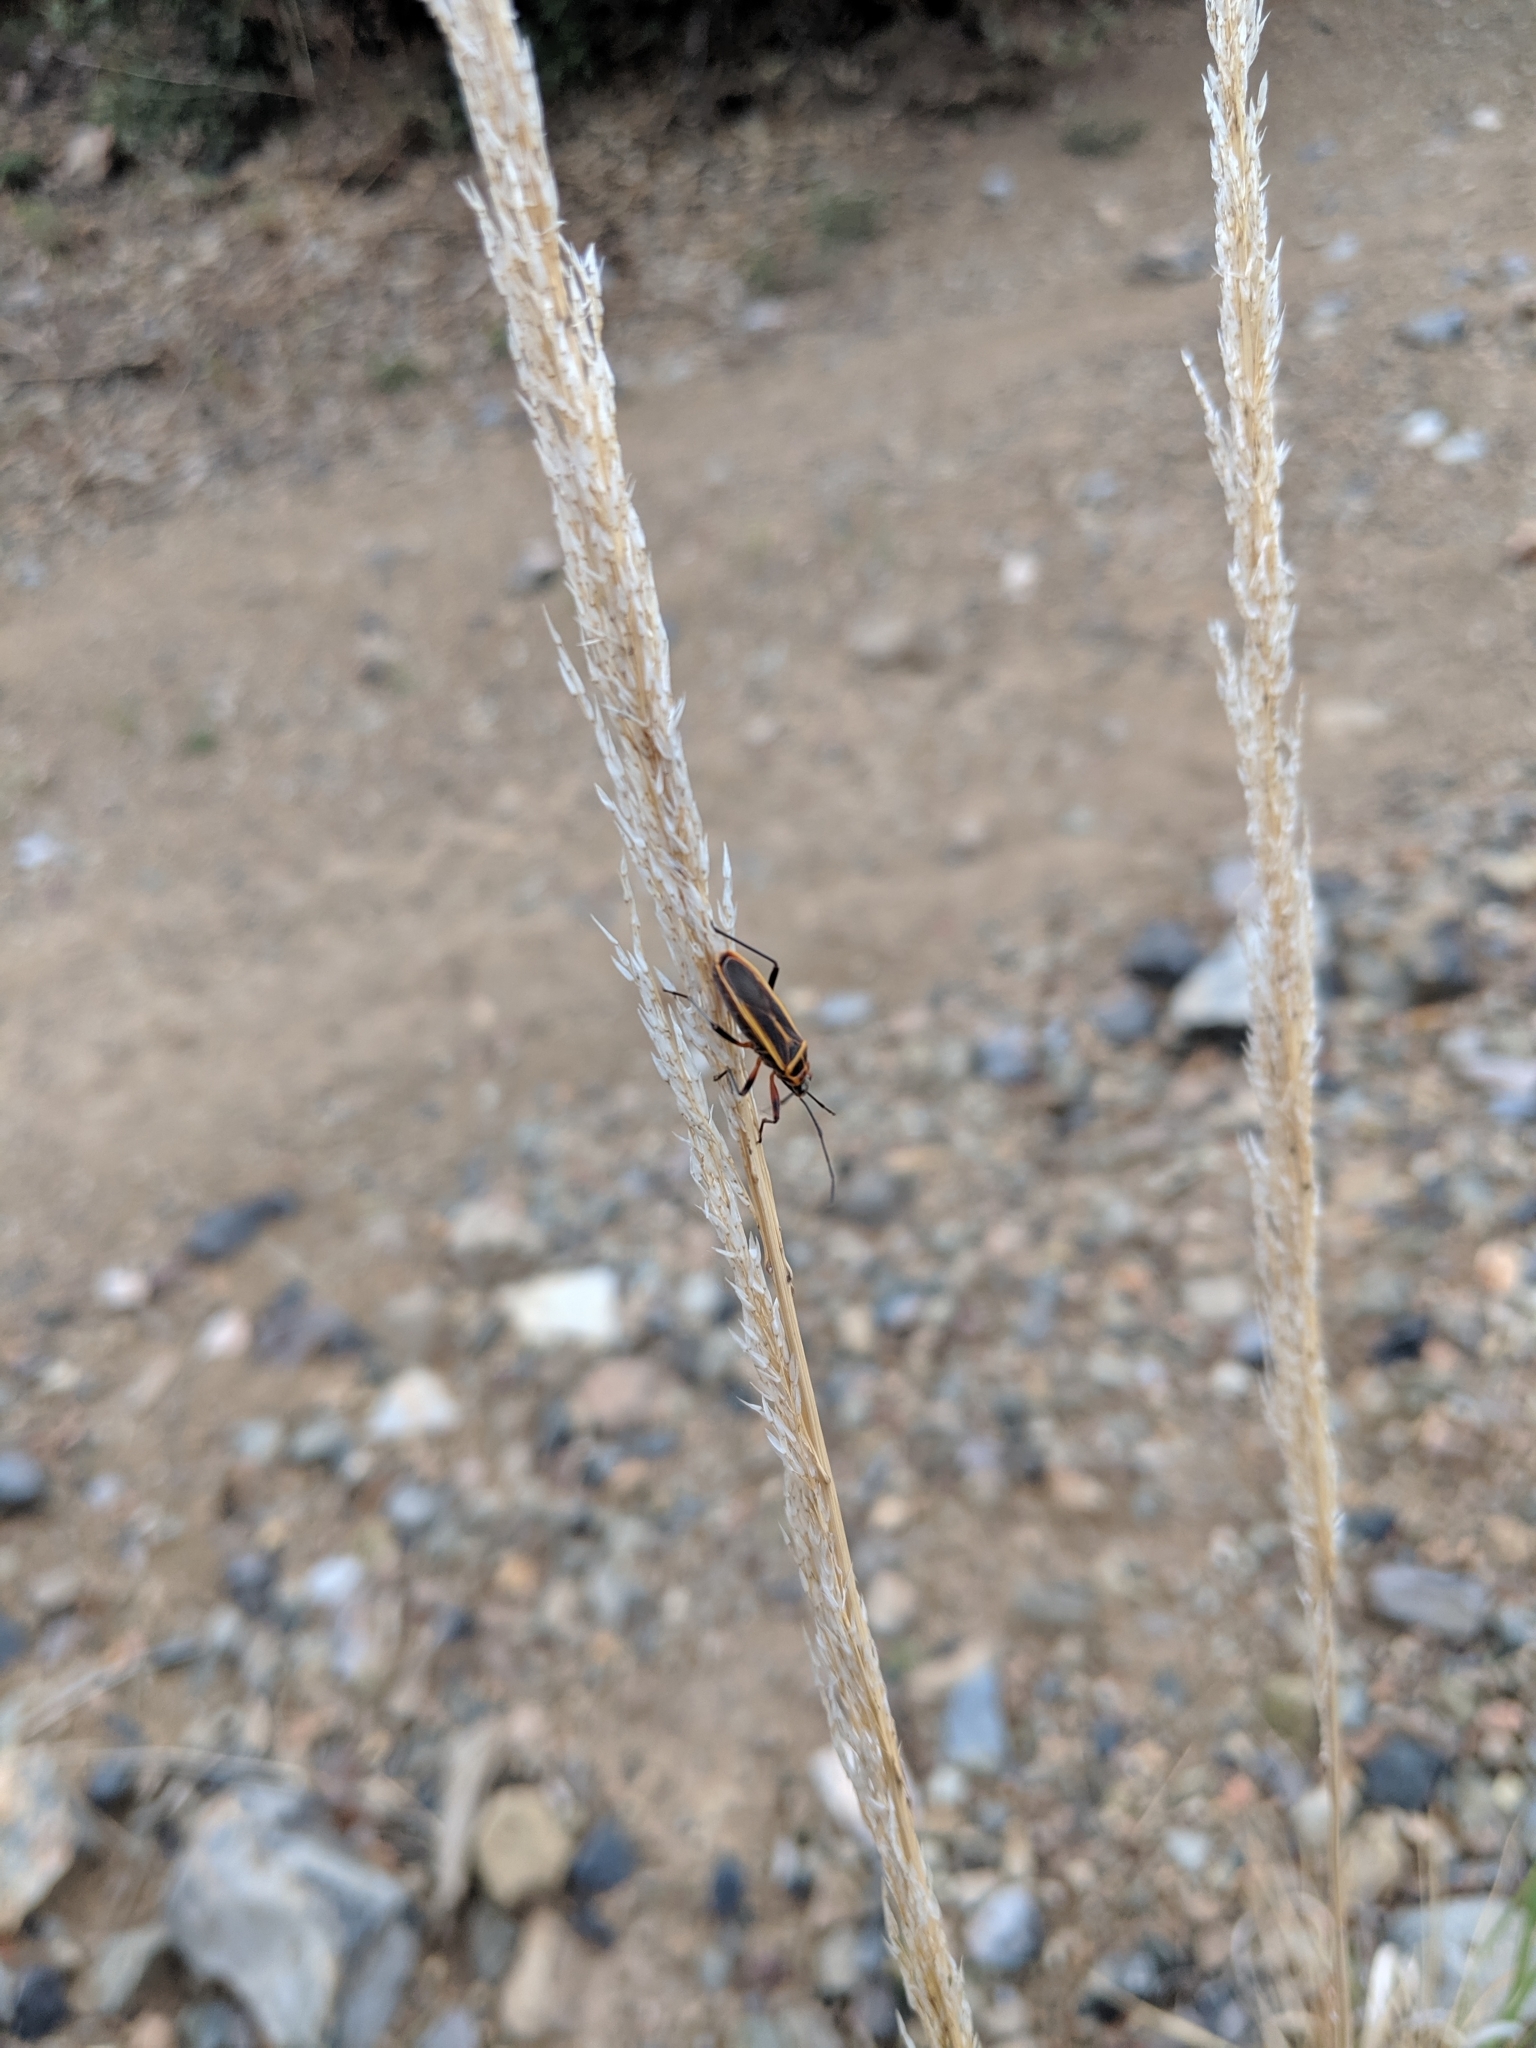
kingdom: Animalia
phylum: Arthropoda
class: Insecta
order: Hemiptera
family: Largidae
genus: Stenomacra
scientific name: Stenomacra marginella
